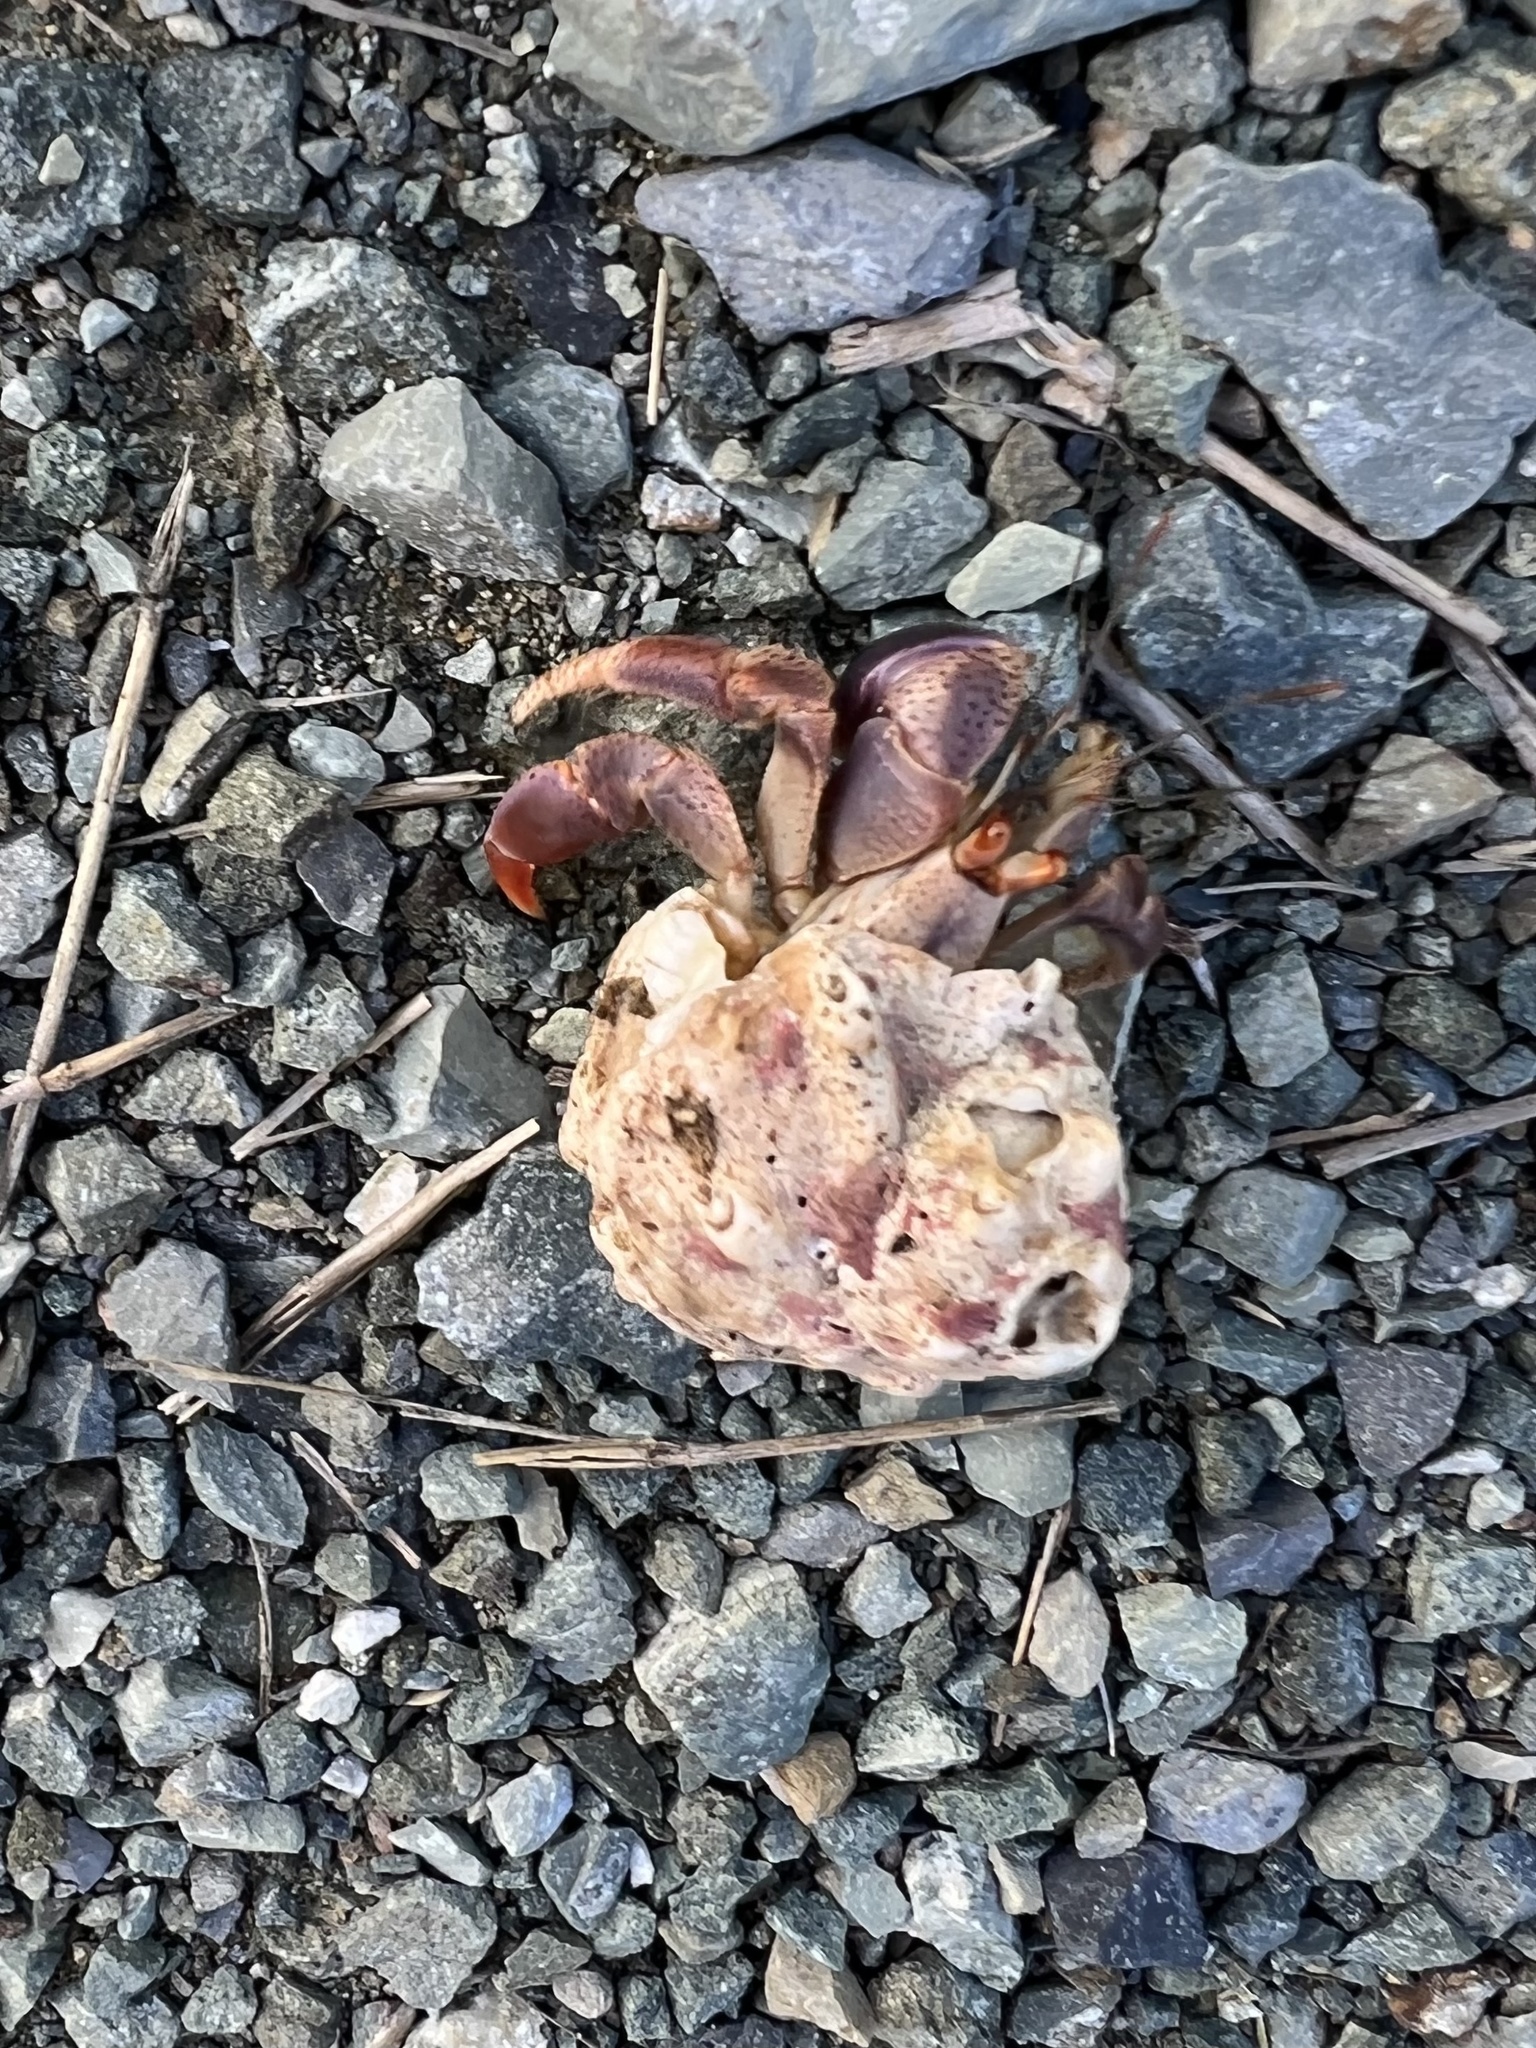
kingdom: Animalia
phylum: Arthropoda
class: Malacostraca
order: Decapoda
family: Coenobitidae
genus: Coenobita
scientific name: Coenobita clypeatus
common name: Caribbean hermit crab
